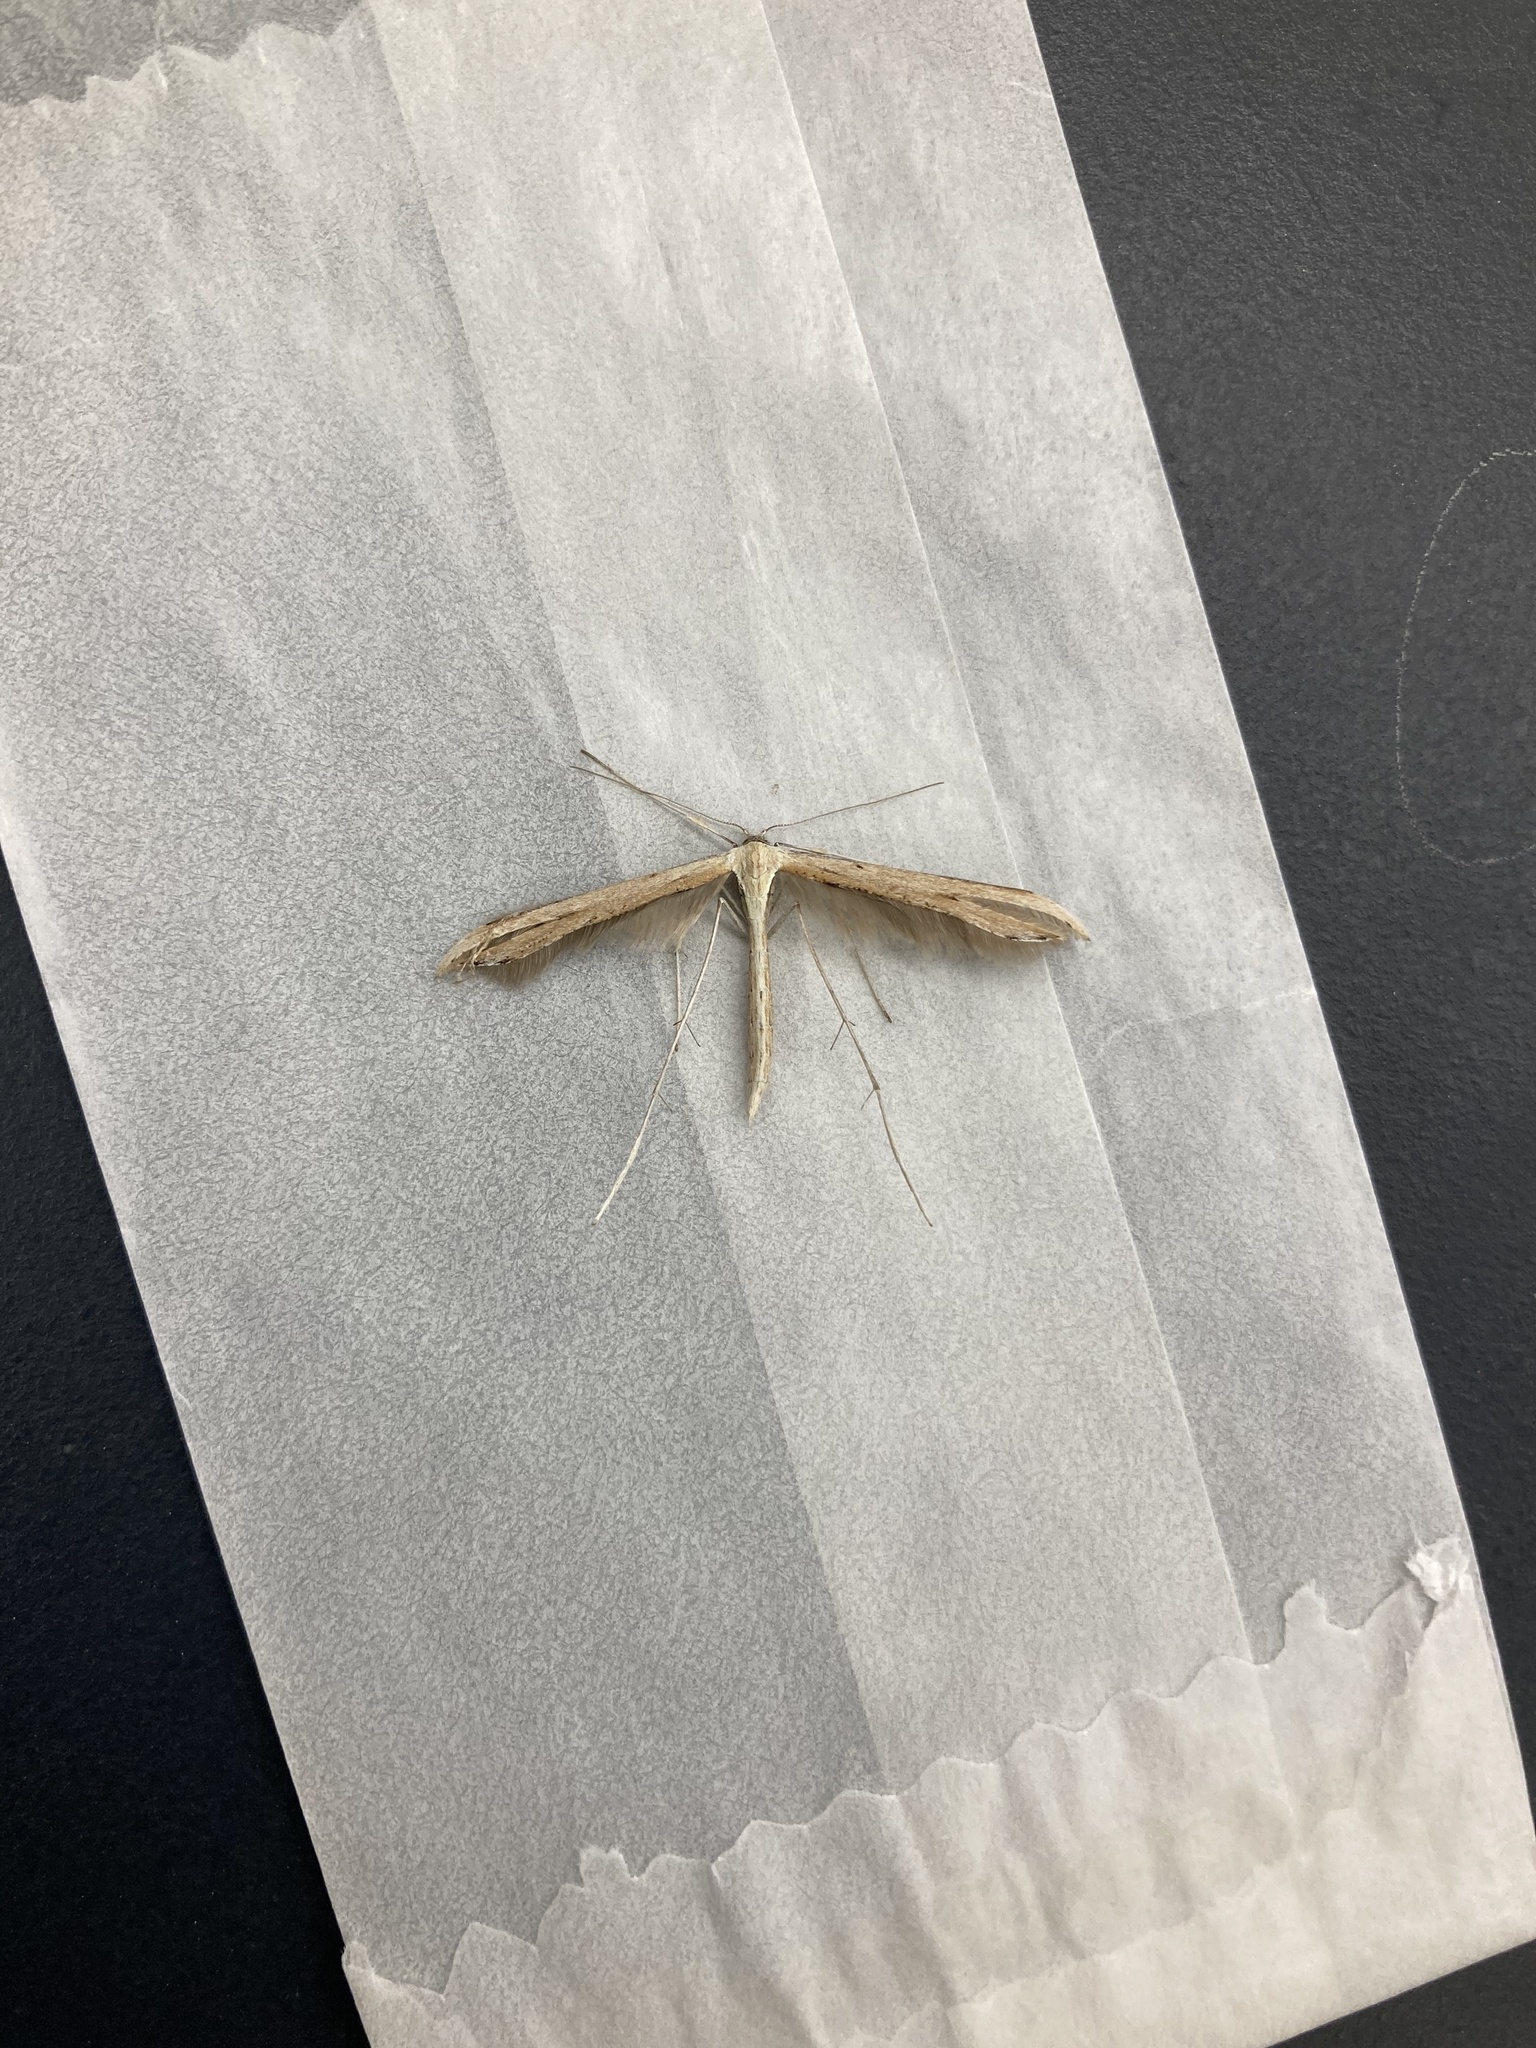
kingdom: Animalia
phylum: Arthropoda
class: Insecta
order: Lepidoptera
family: Pterophoridae
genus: Emmelina
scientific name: Emmelina monodactyla
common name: Common plume
